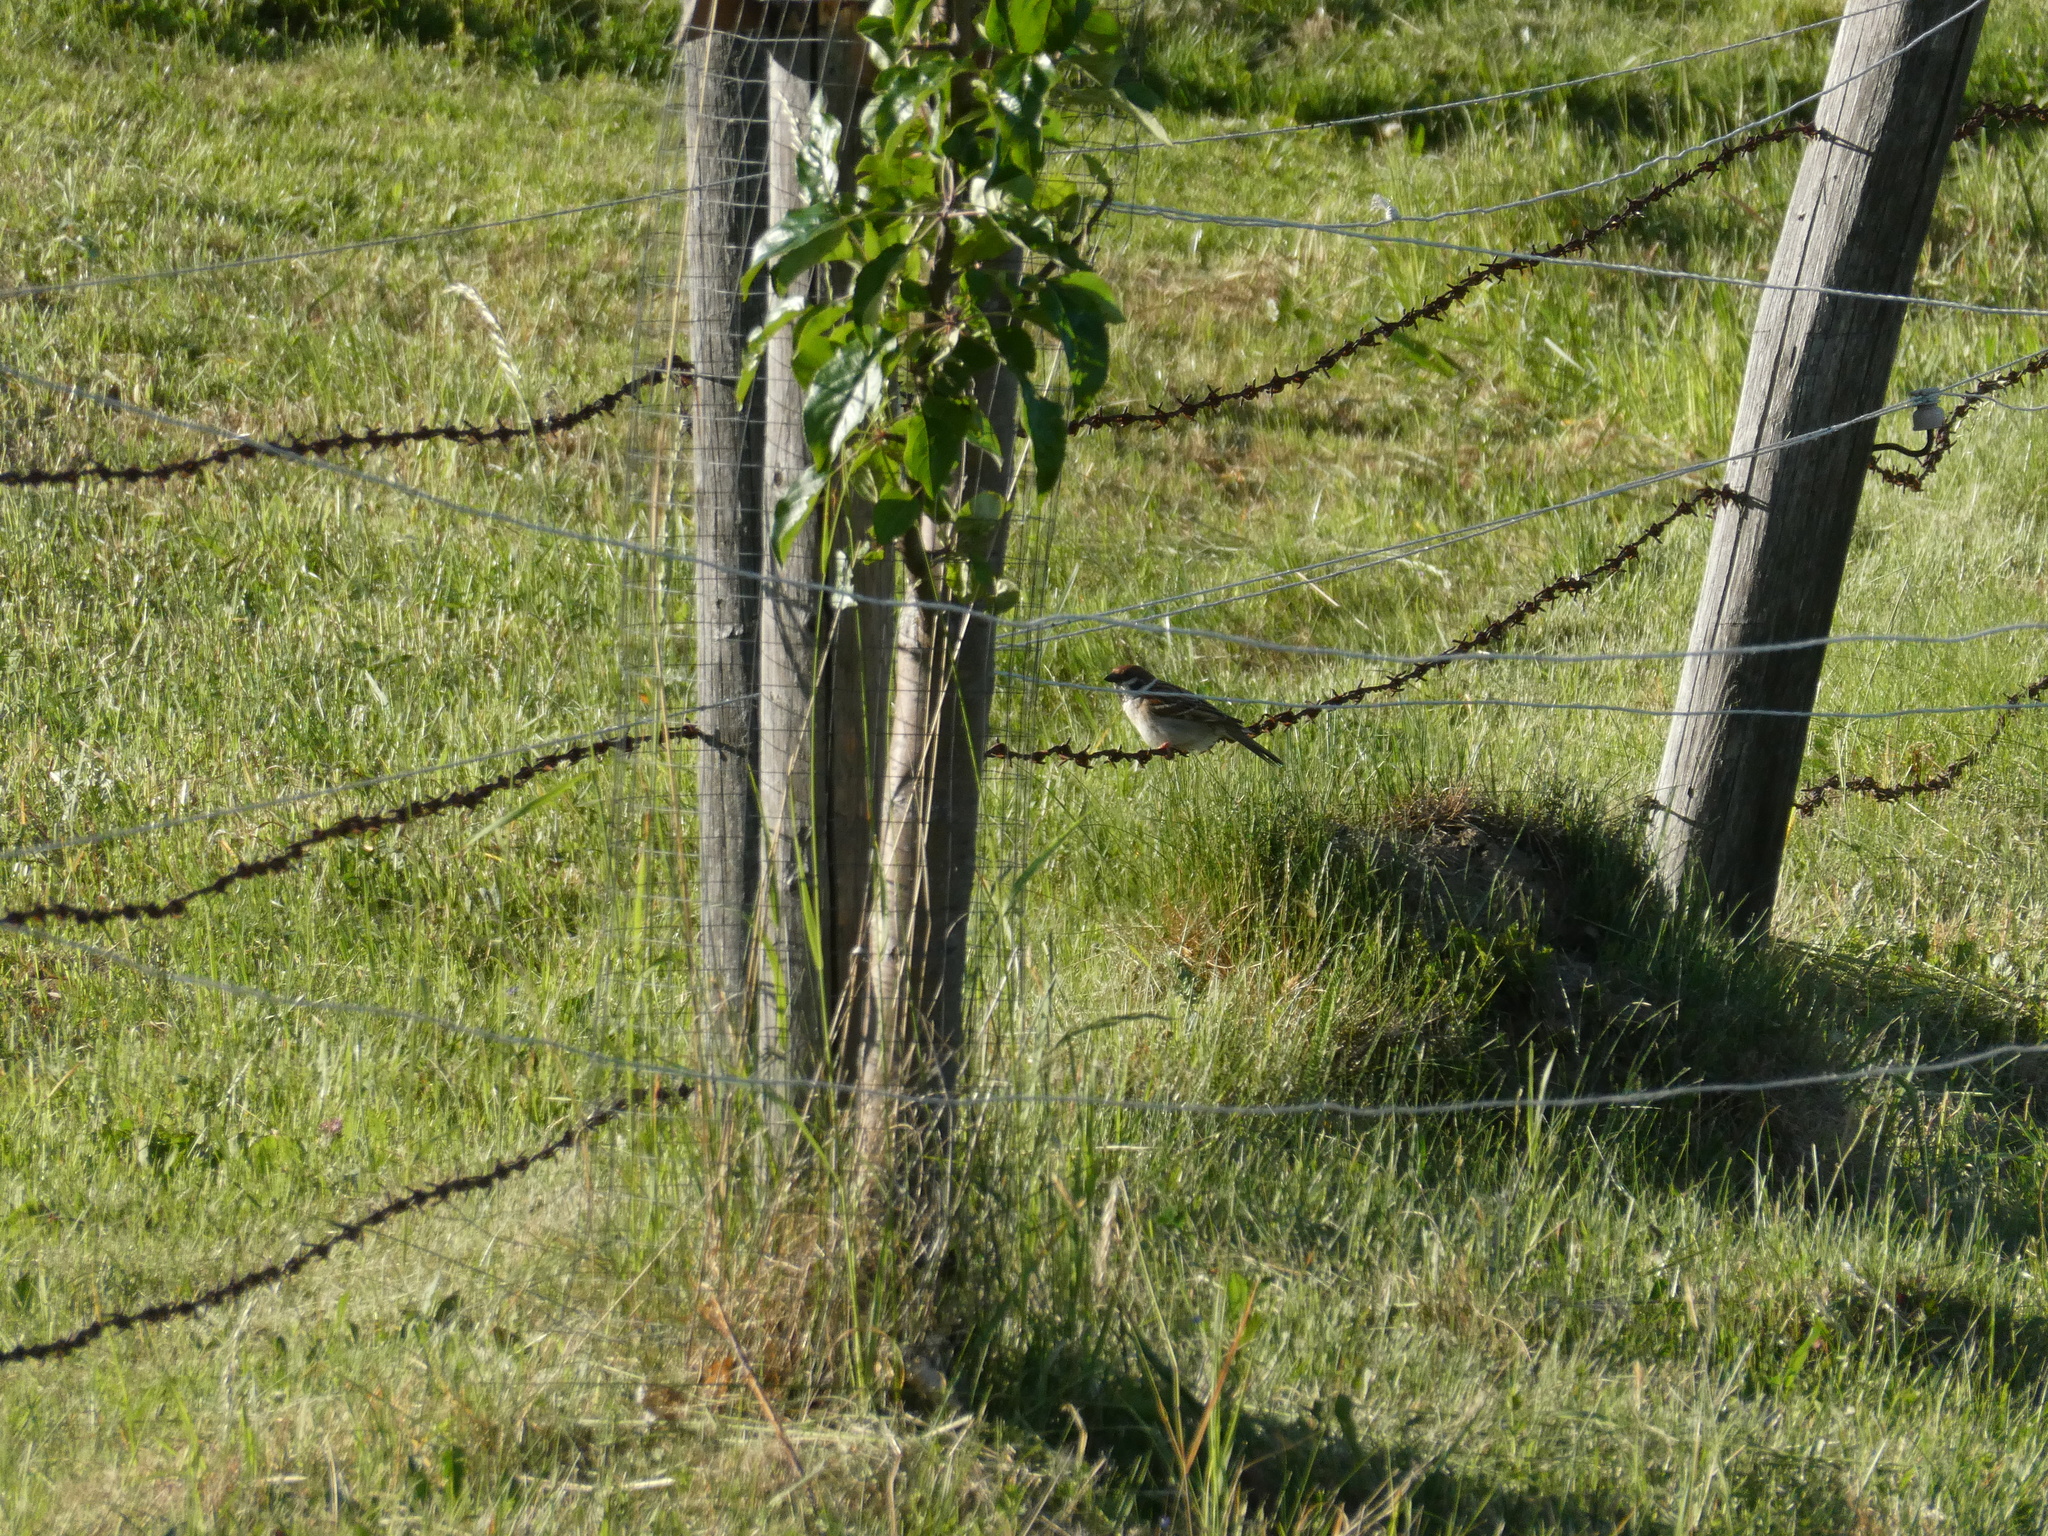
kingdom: Animalia
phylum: Chordata
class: Aves
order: Passeriformes
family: Passeridae
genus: Passer
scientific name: Passer montanus
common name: Eurasian tree sparrow
